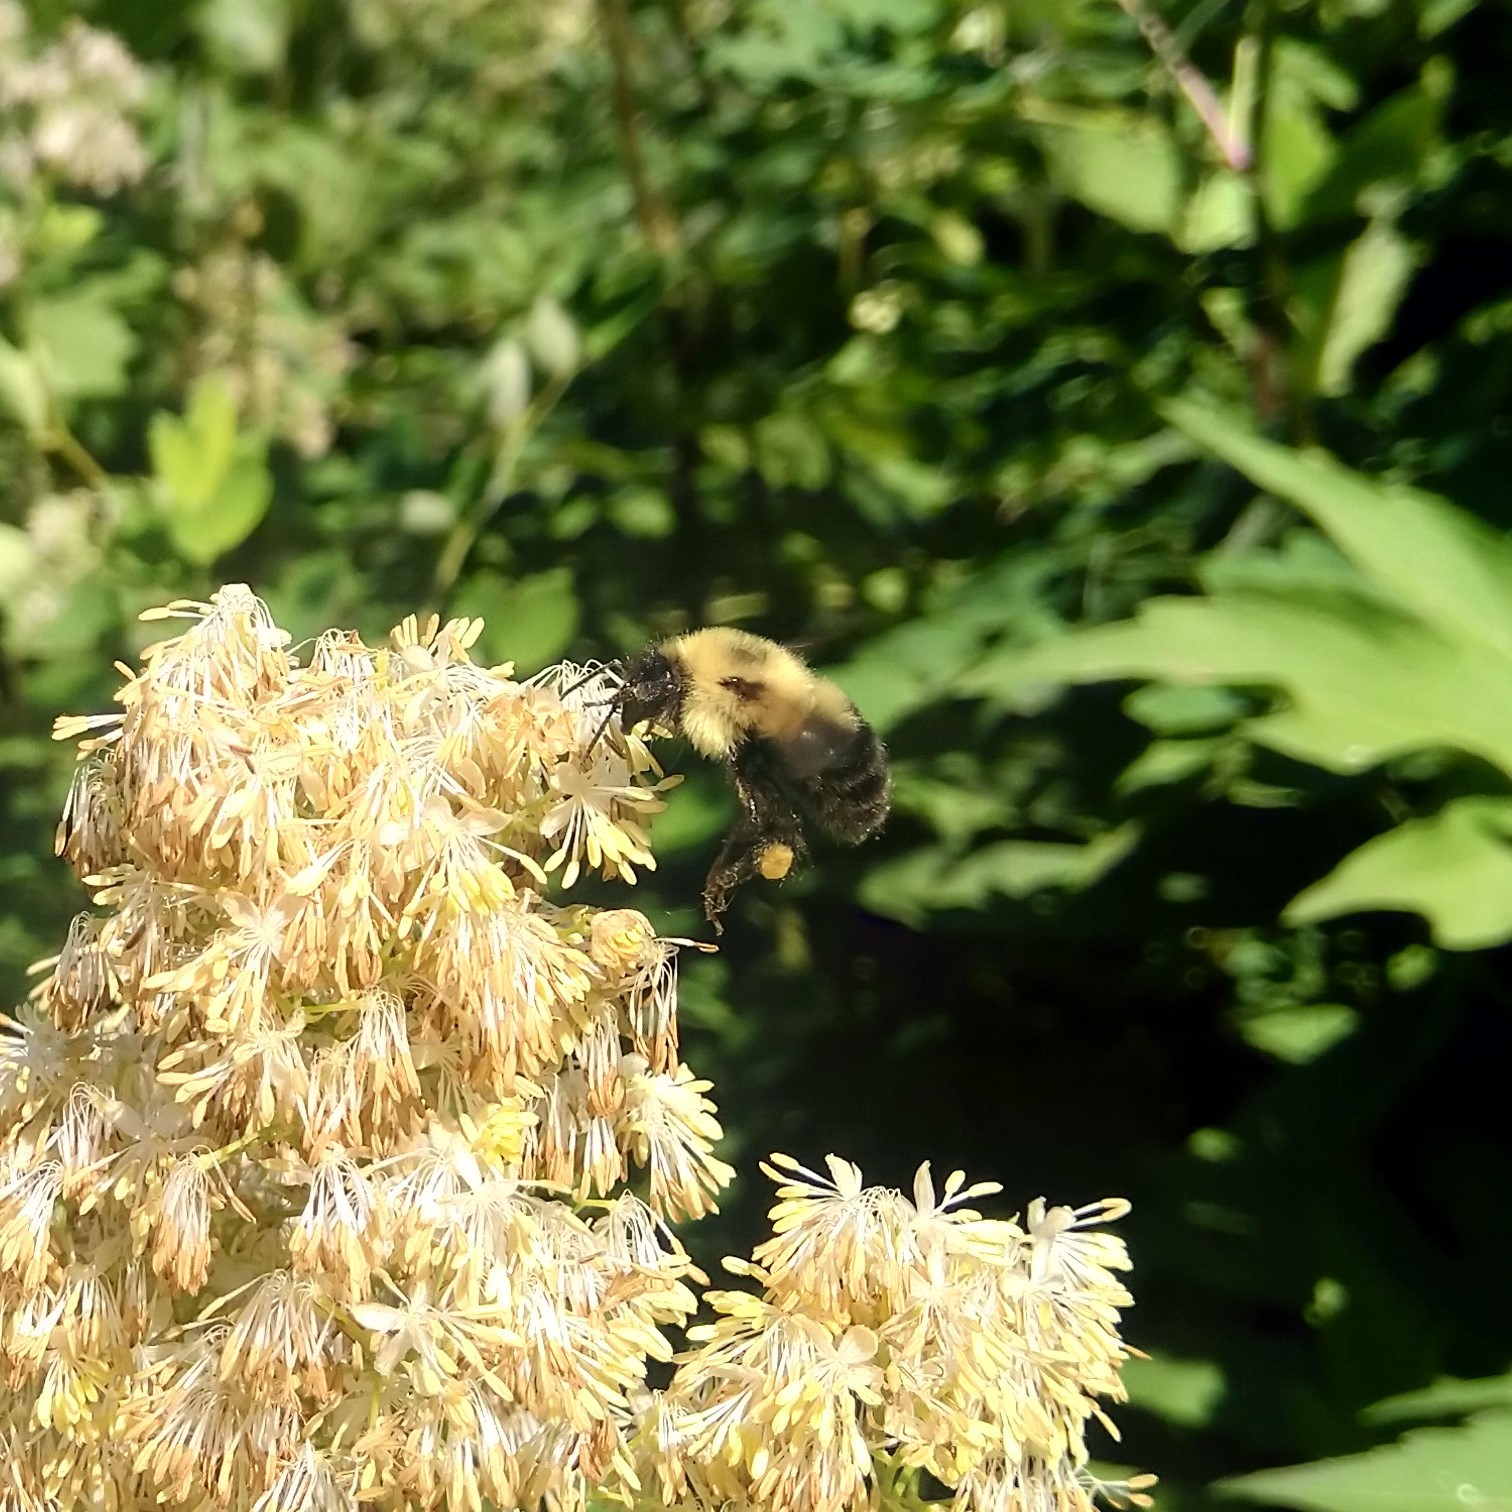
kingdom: Animalia
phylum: Arthropoda
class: Insecta
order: Hymenoptera
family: Apidae
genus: Bombus
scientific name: Bombus bimaculatus
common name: Two-spotted bumble bee
